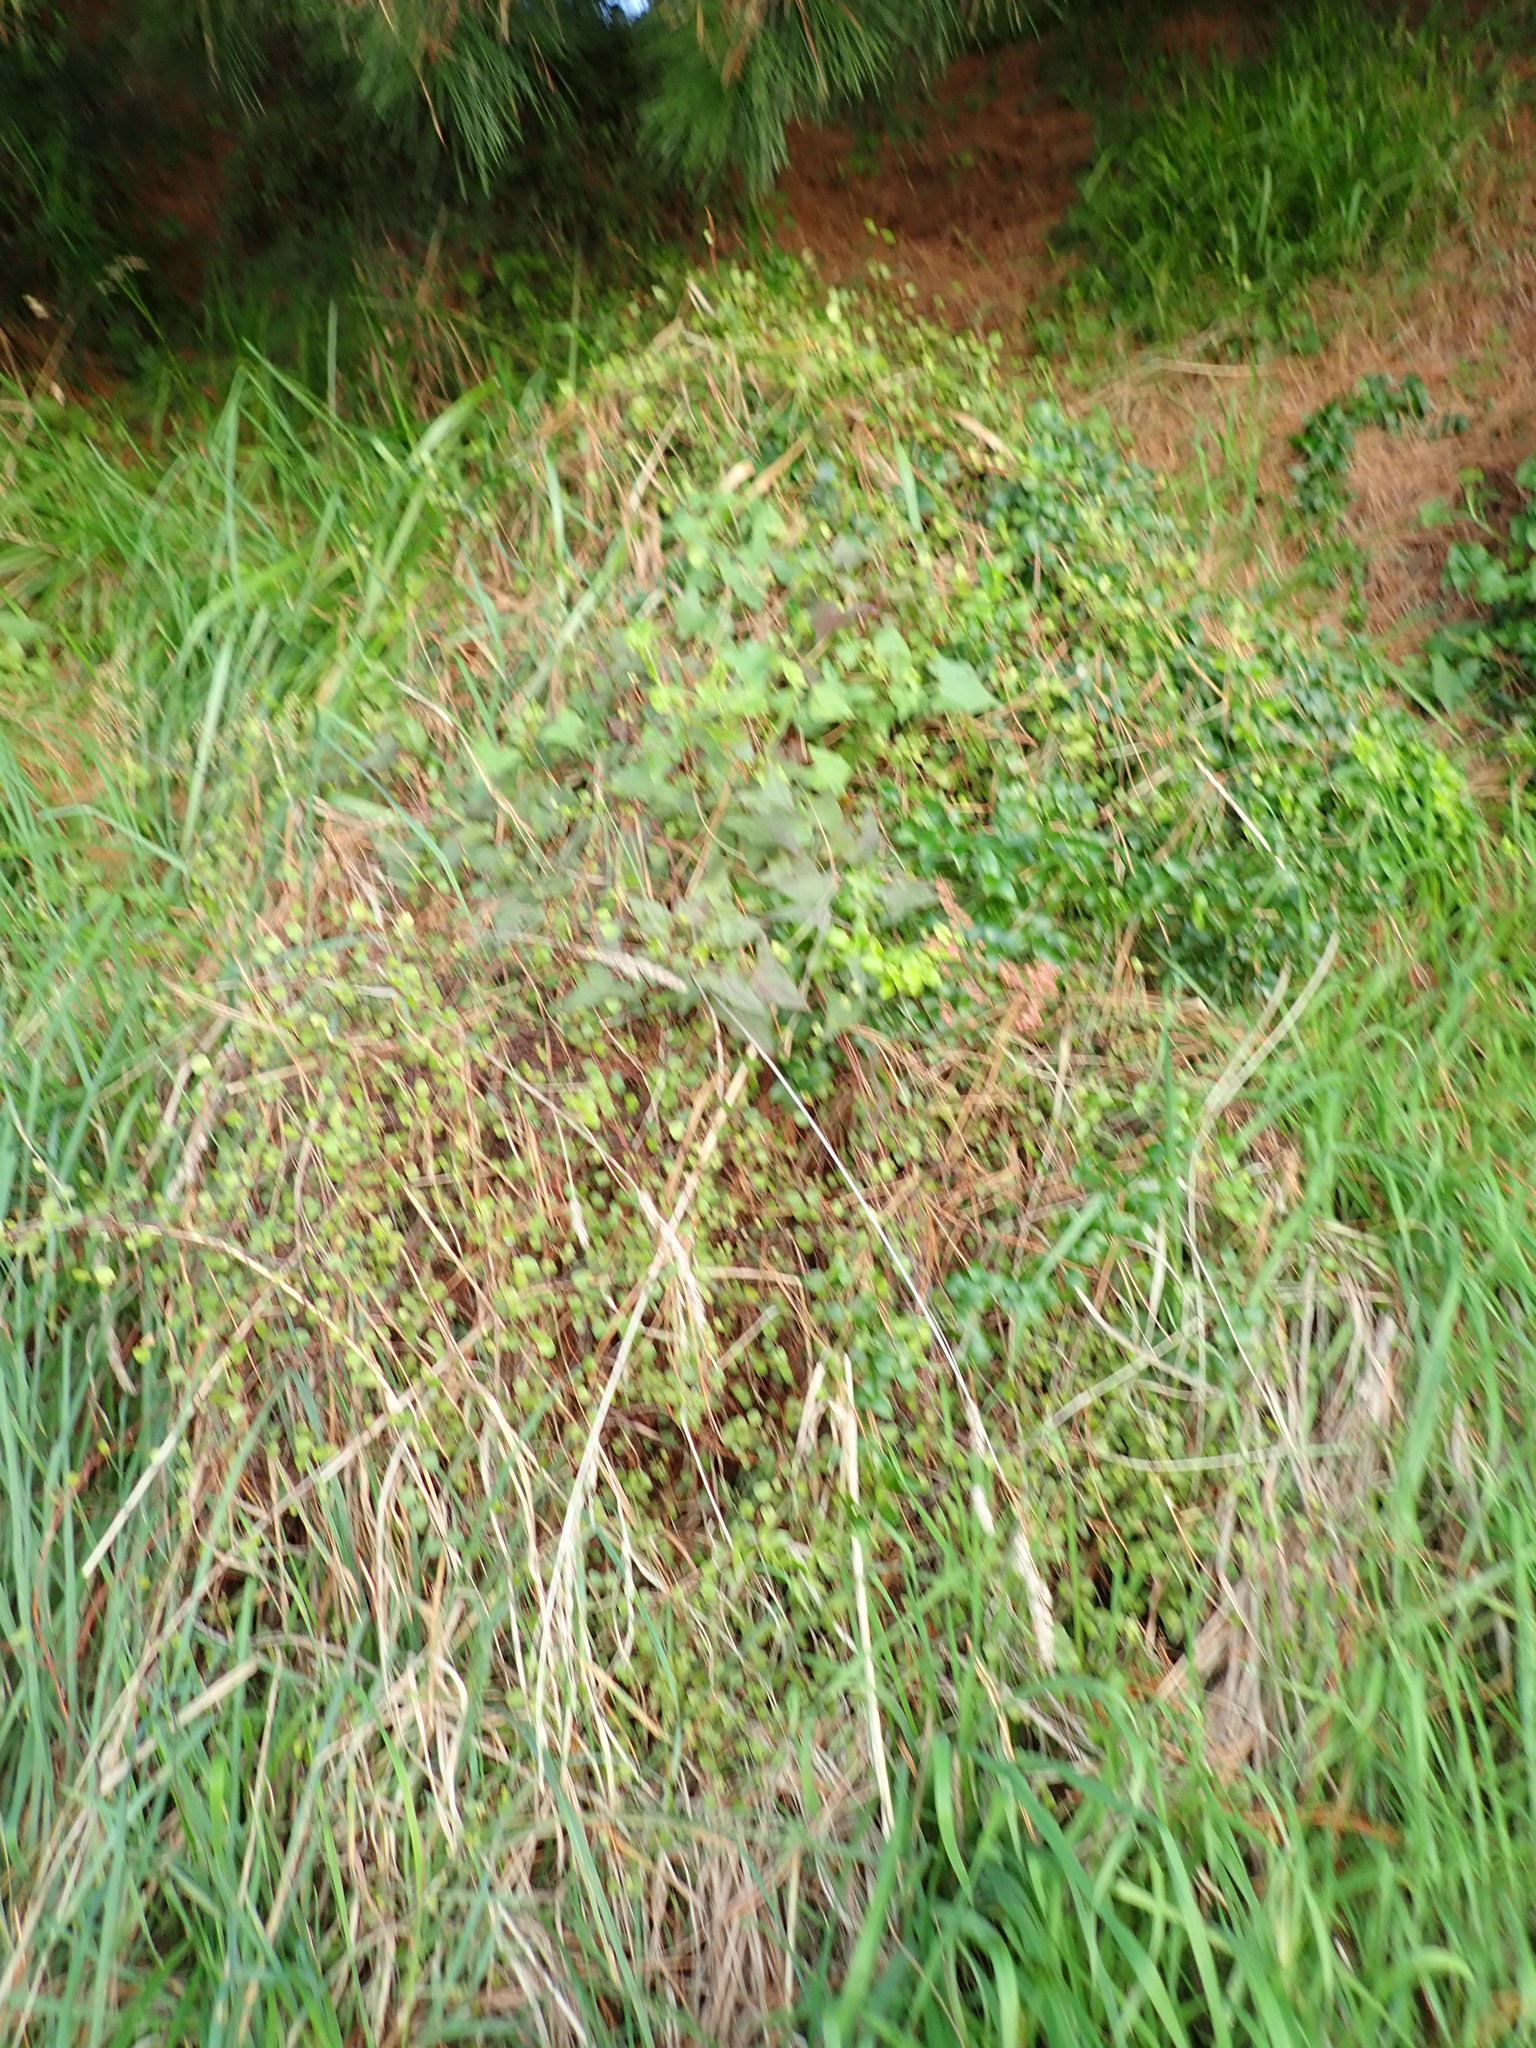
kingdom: Plantae
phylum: Tracheophyta
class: Liliopsida
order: Asparagales
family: Asparagaceae
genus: Asparagus
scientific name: Asparagus asparagoides
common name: African asparagus fern
